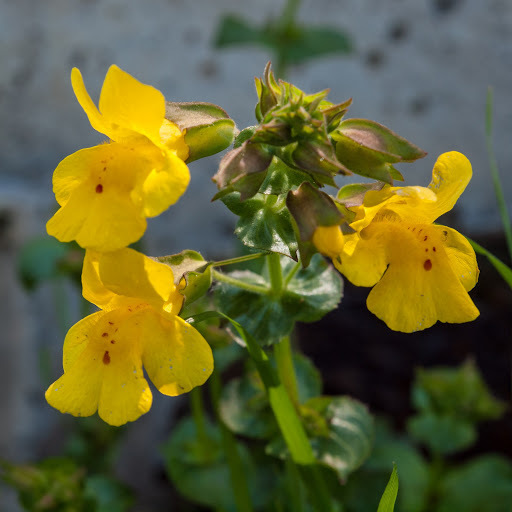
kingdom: Plantae
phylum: Tracheophyta
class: Magnoliopsida
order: Lamiales
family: Phrymaceae
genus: Erythranthe
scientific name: Erythranthe guttata
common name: Monkeyflower
